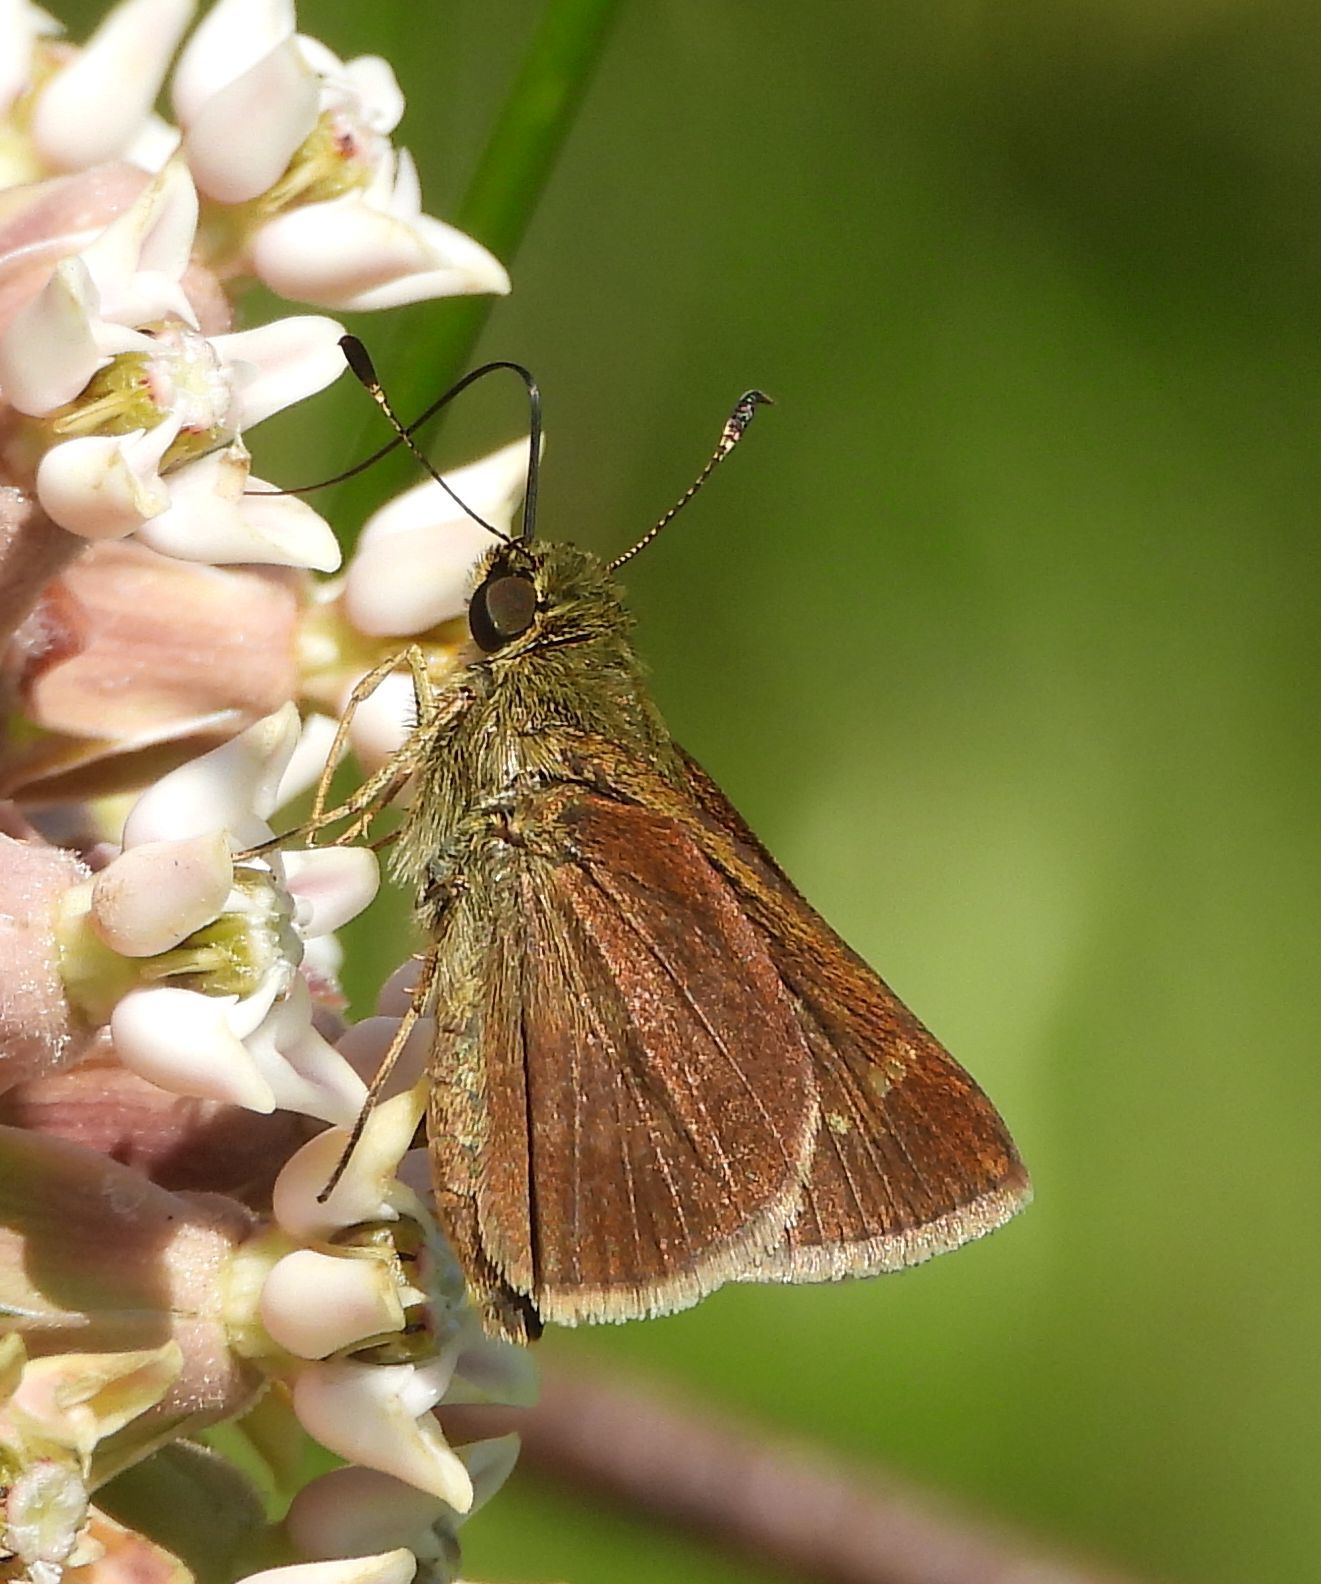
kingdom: Animalia
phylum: Arthropoda
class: Insecta
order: Lepidoptera
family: Hesperiidae
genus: Vernia
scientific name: Vernia verna
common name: Little glassywing
